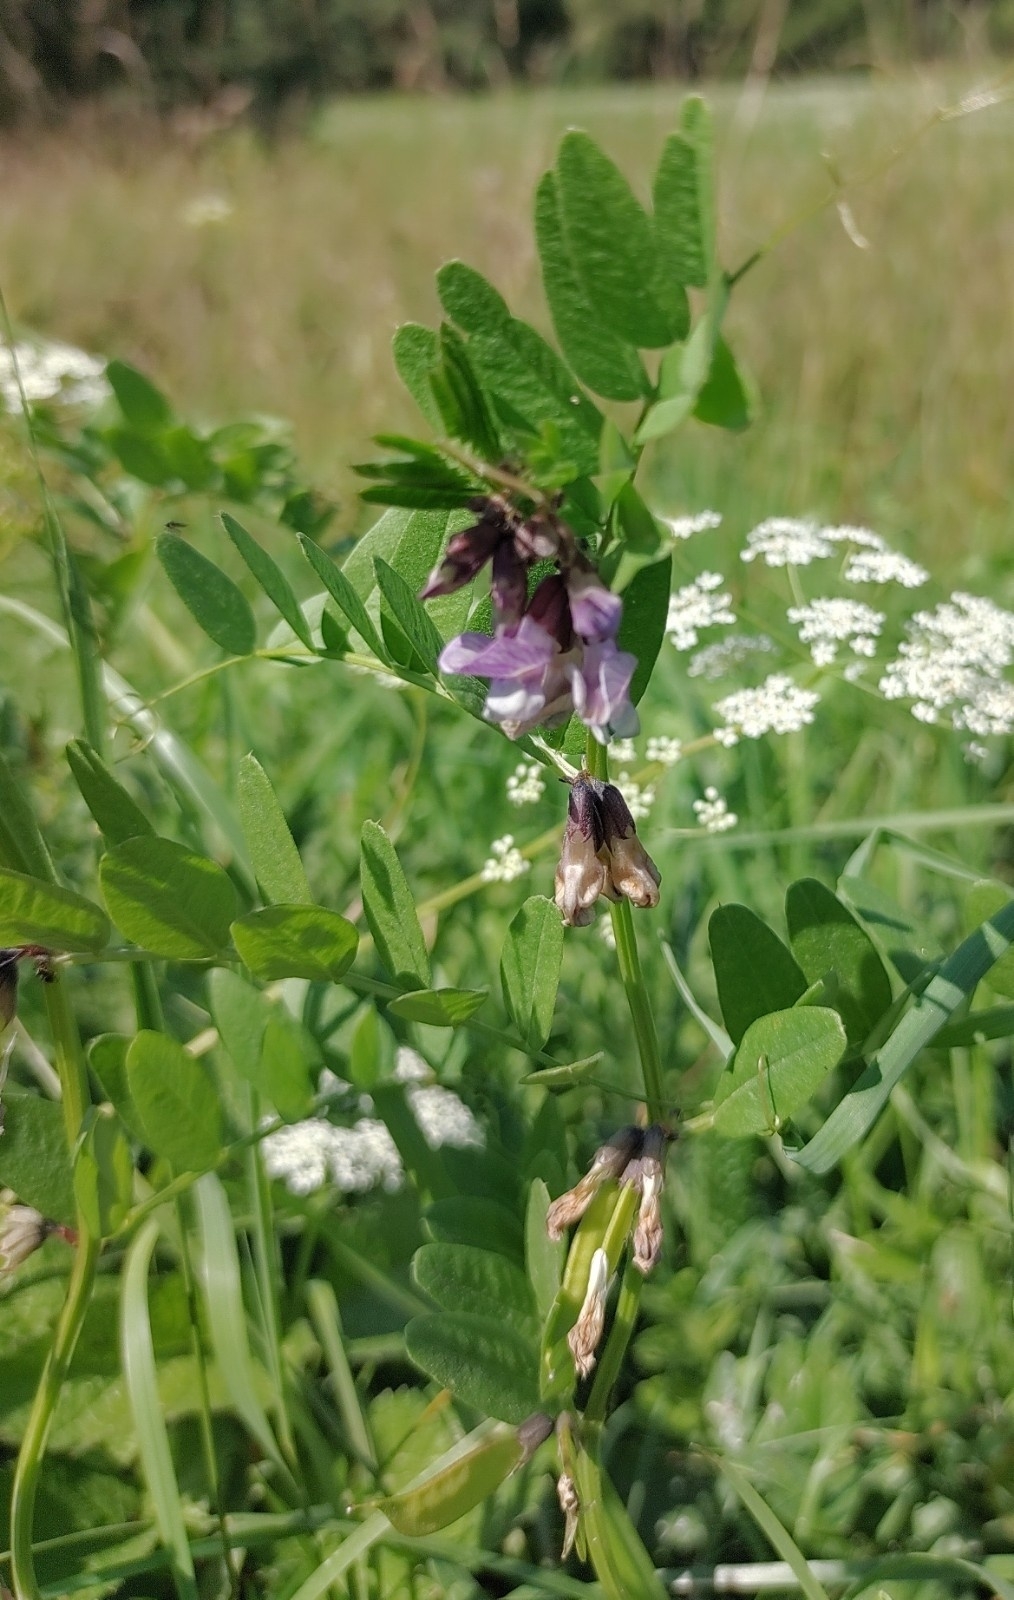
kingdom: Plantae
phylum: Tracheophyta
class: Magnoliopsida
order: Fabales
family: Fabaceae
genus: Vicia
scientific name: Vicia sepium
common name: Bush vetch
